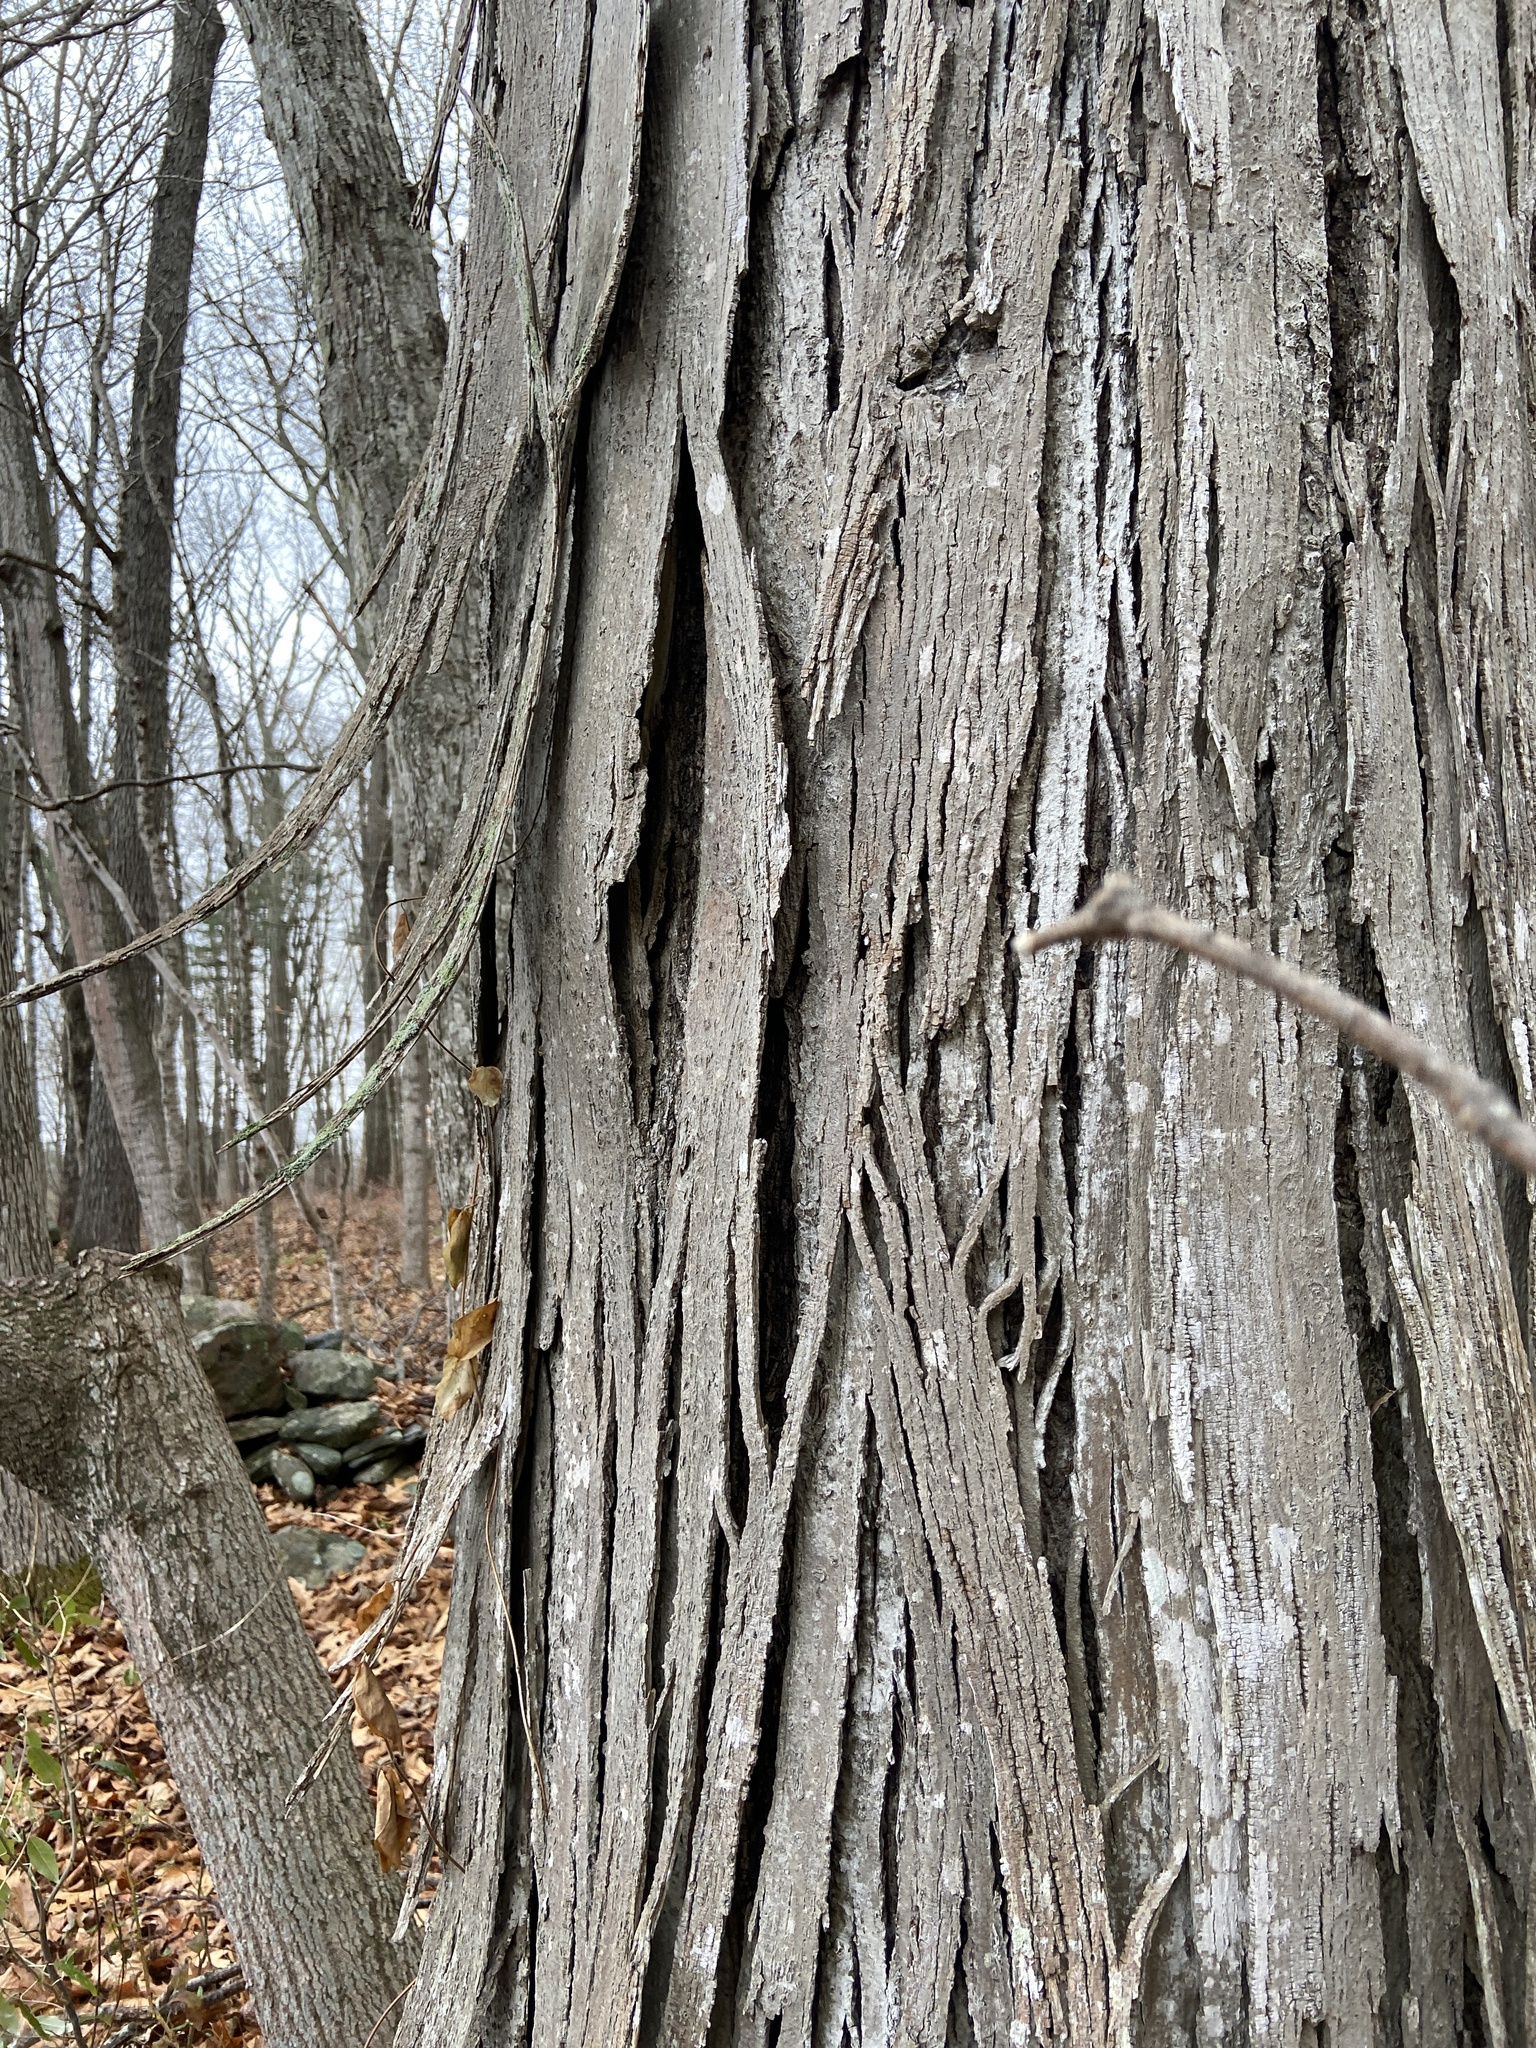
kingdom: Plantae
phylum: Tracheophyta
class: Magnoliopsida
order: Fagales
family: Juglandaceae
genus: Carya
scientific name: Carya ovata
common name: Shagbark hickory
